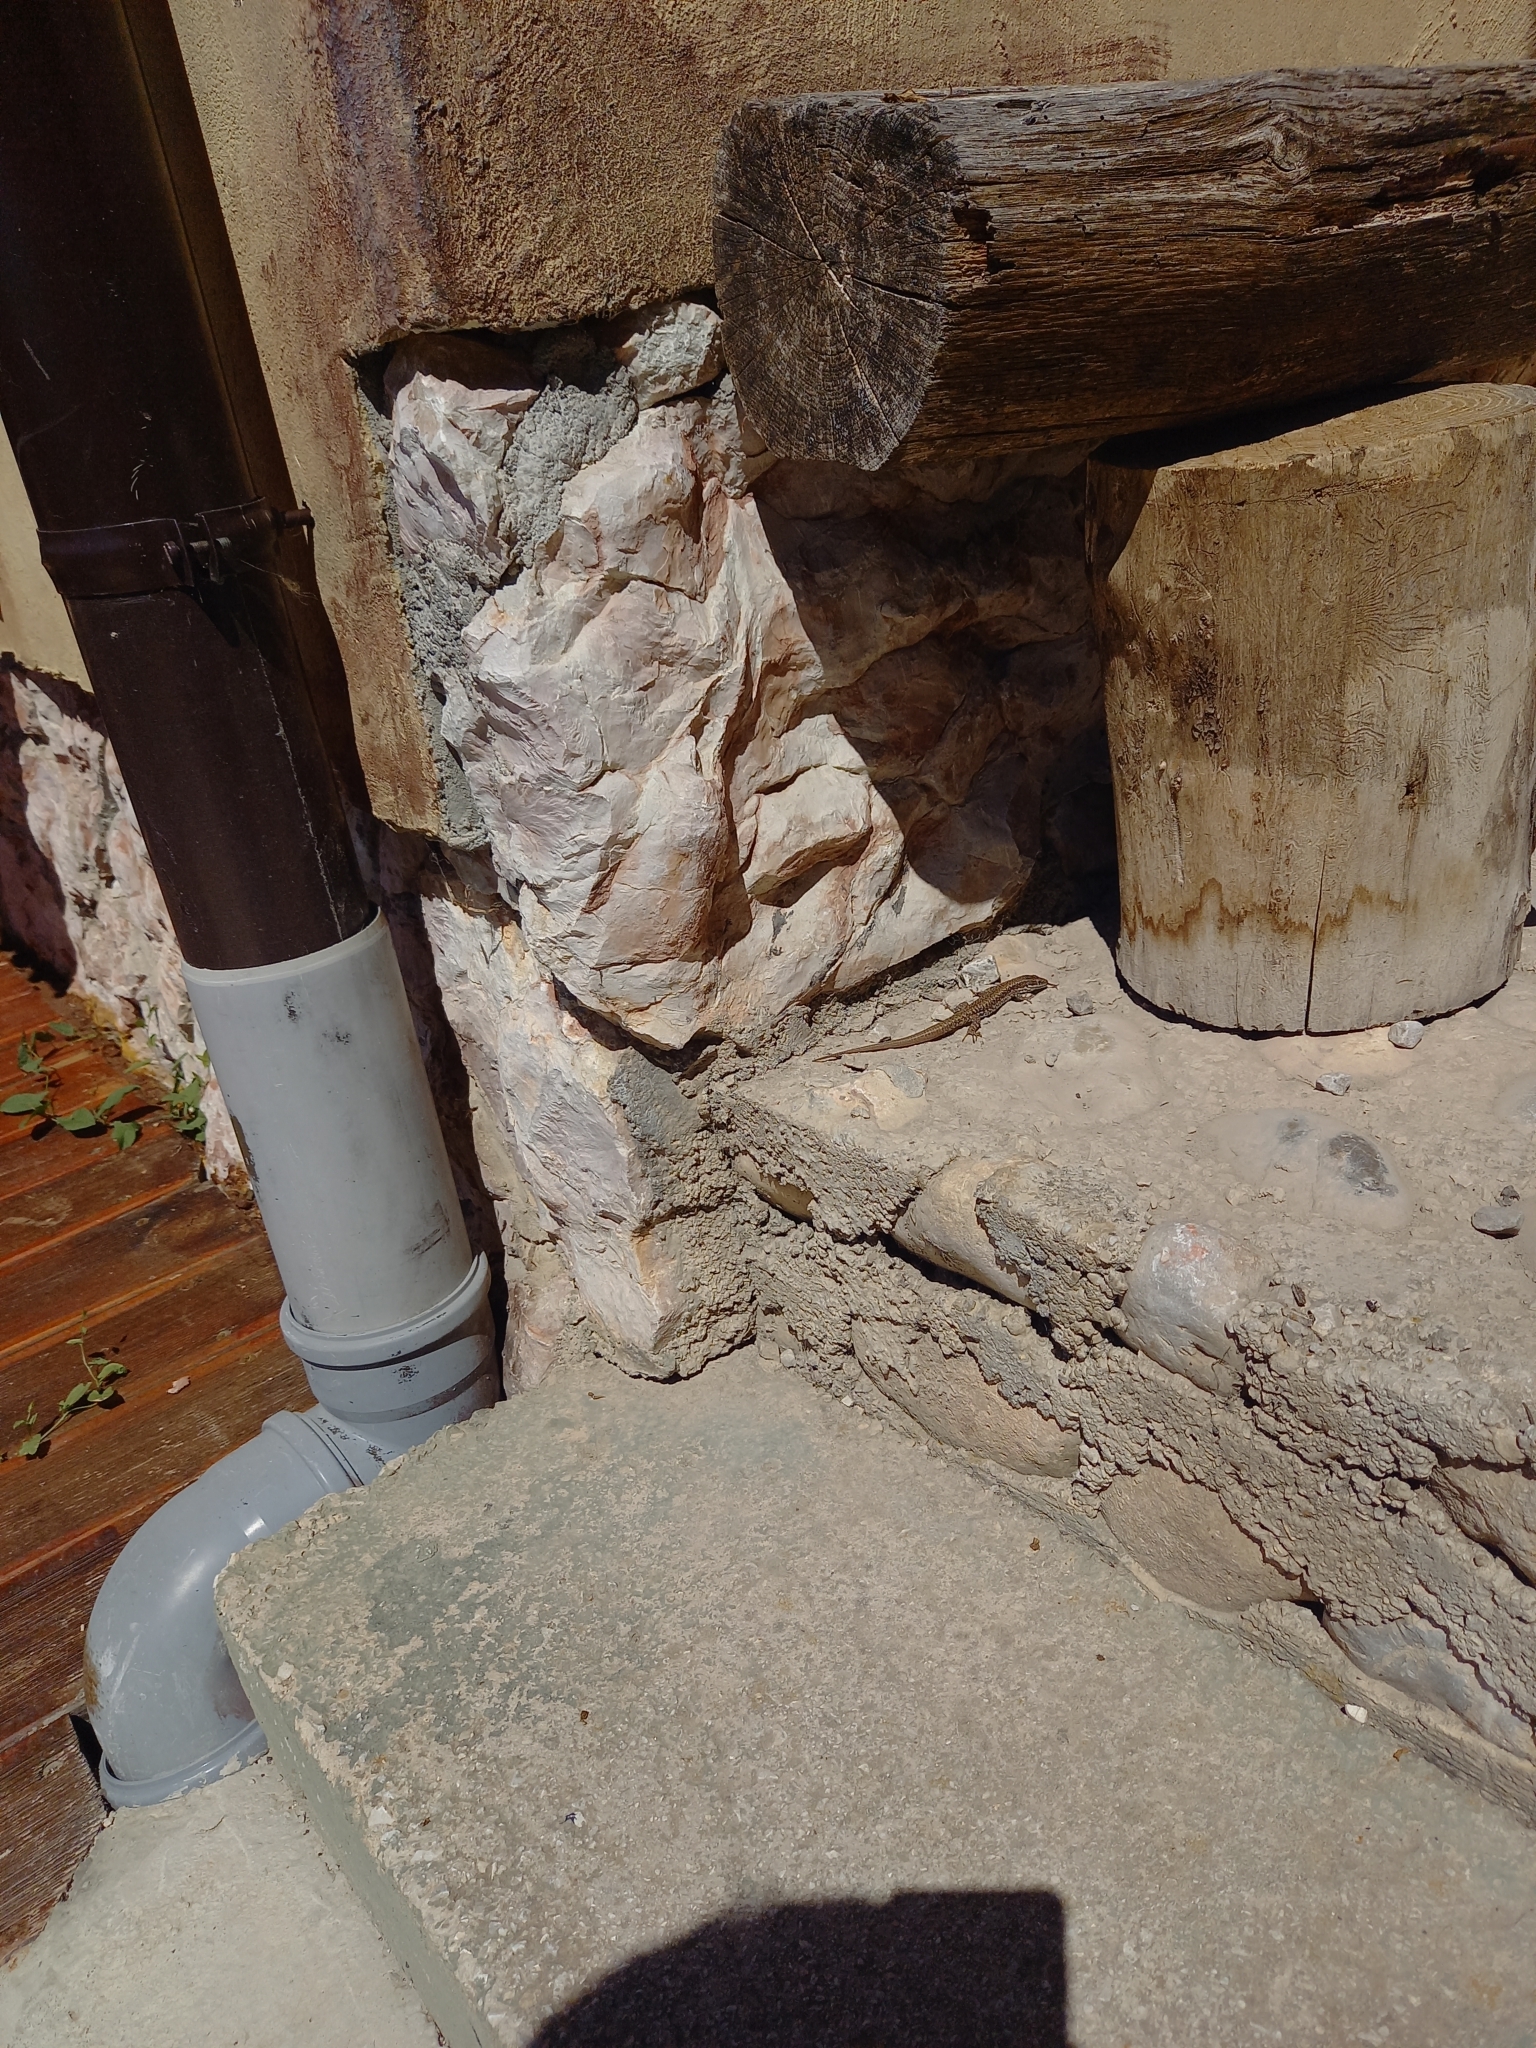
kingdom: Animalia
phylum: Chordata
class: Squamata
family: Lacertidae
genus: Podarcis
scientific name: Podarcis muralis
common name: Common wall lizard
